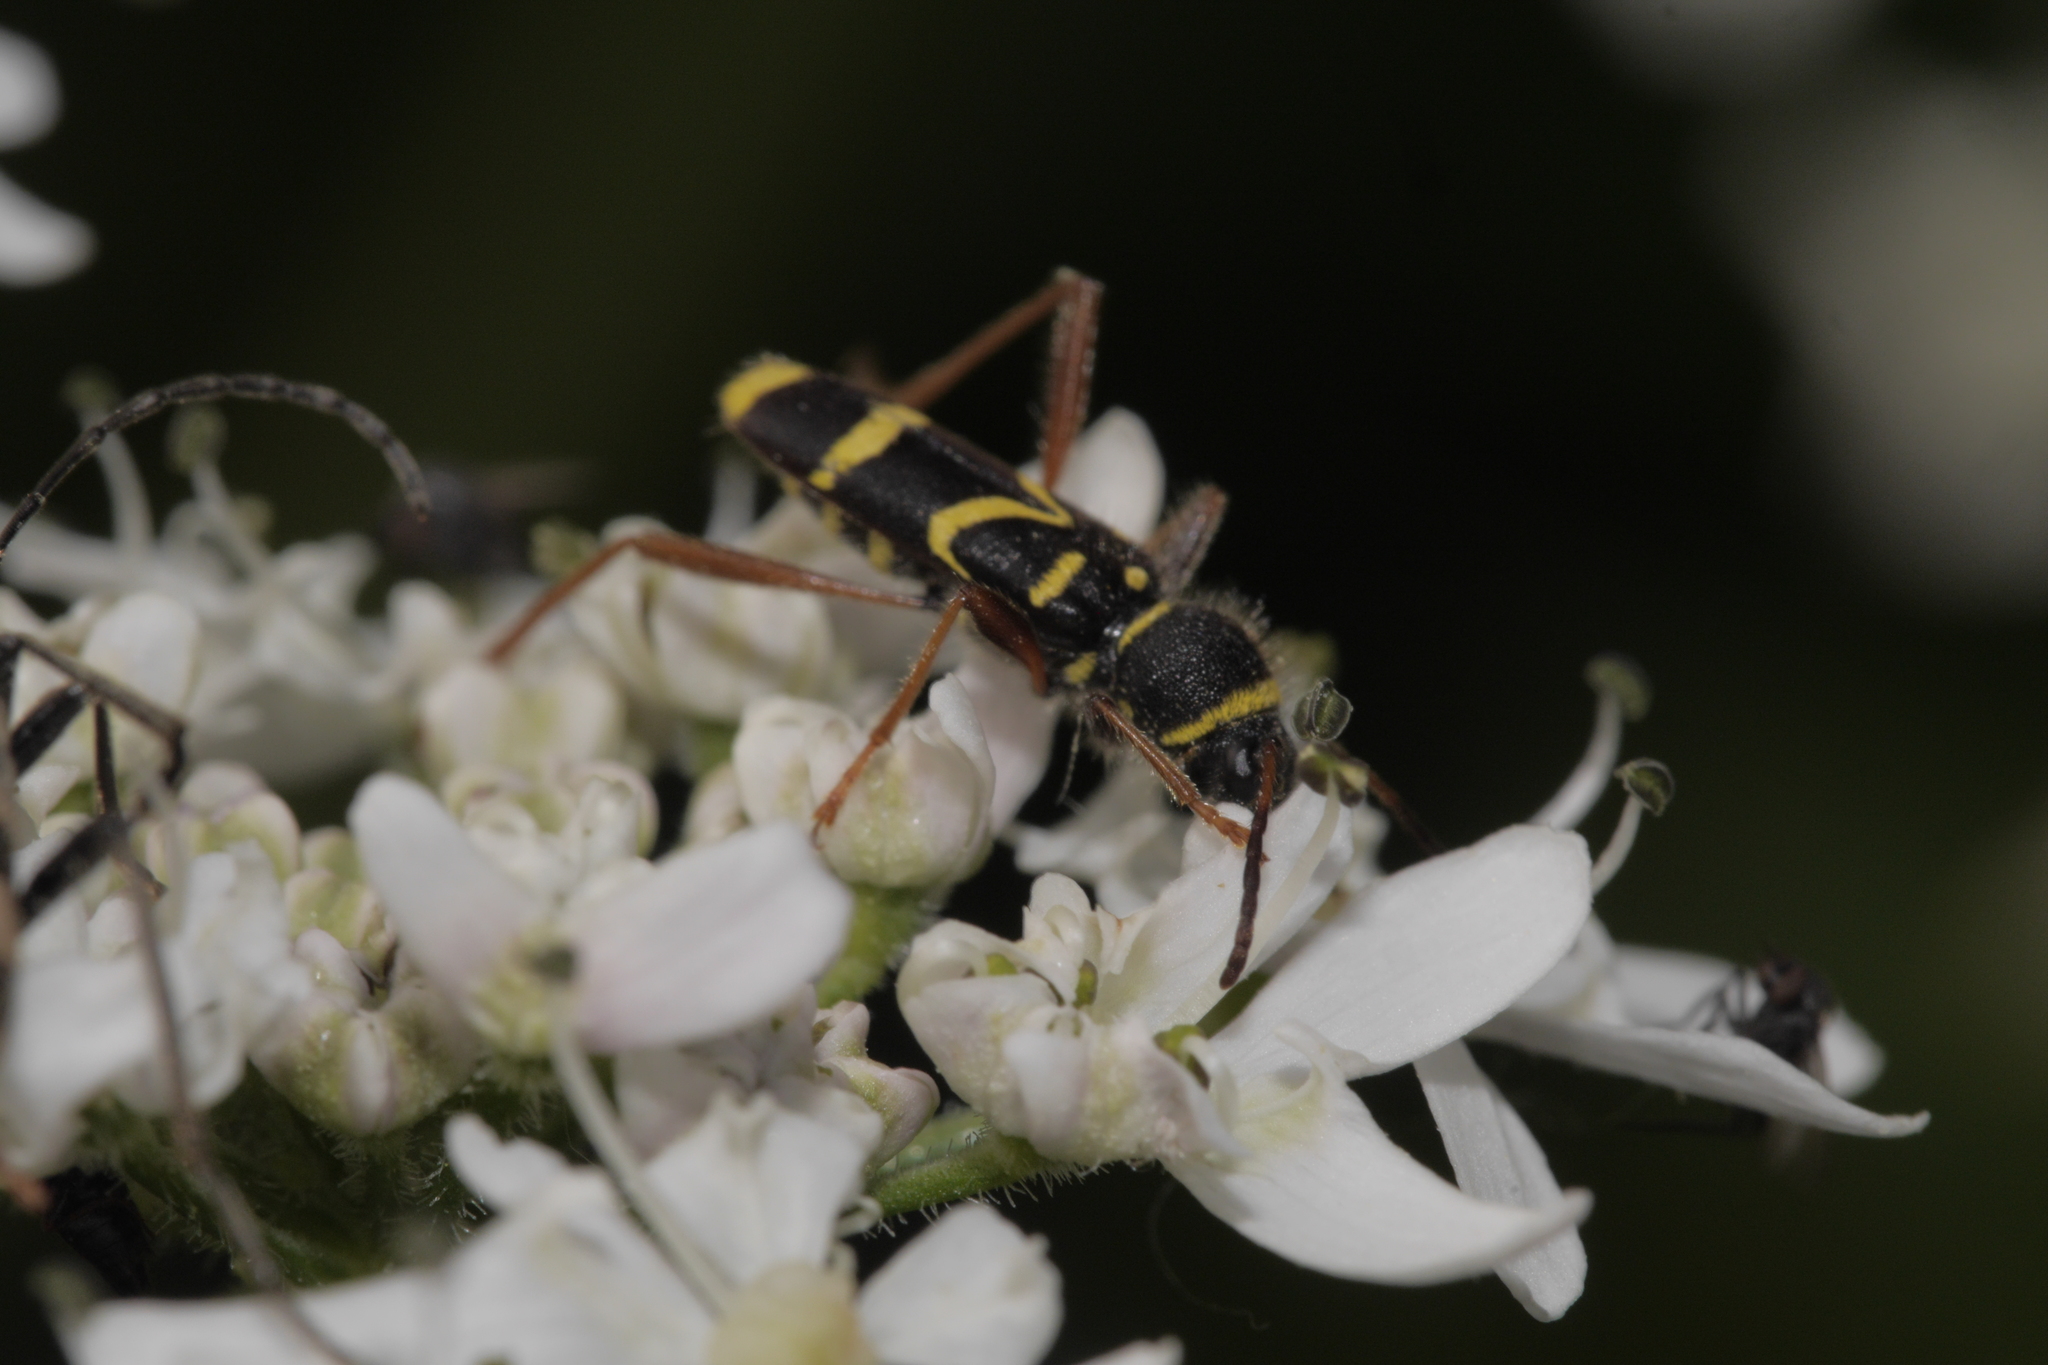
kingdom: Animalia
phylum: Arthropoda
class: Insecta
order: Coleoptera
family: Cerambycidae
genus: Clytus
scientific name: Clytus arietis
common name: Wasp beetle
